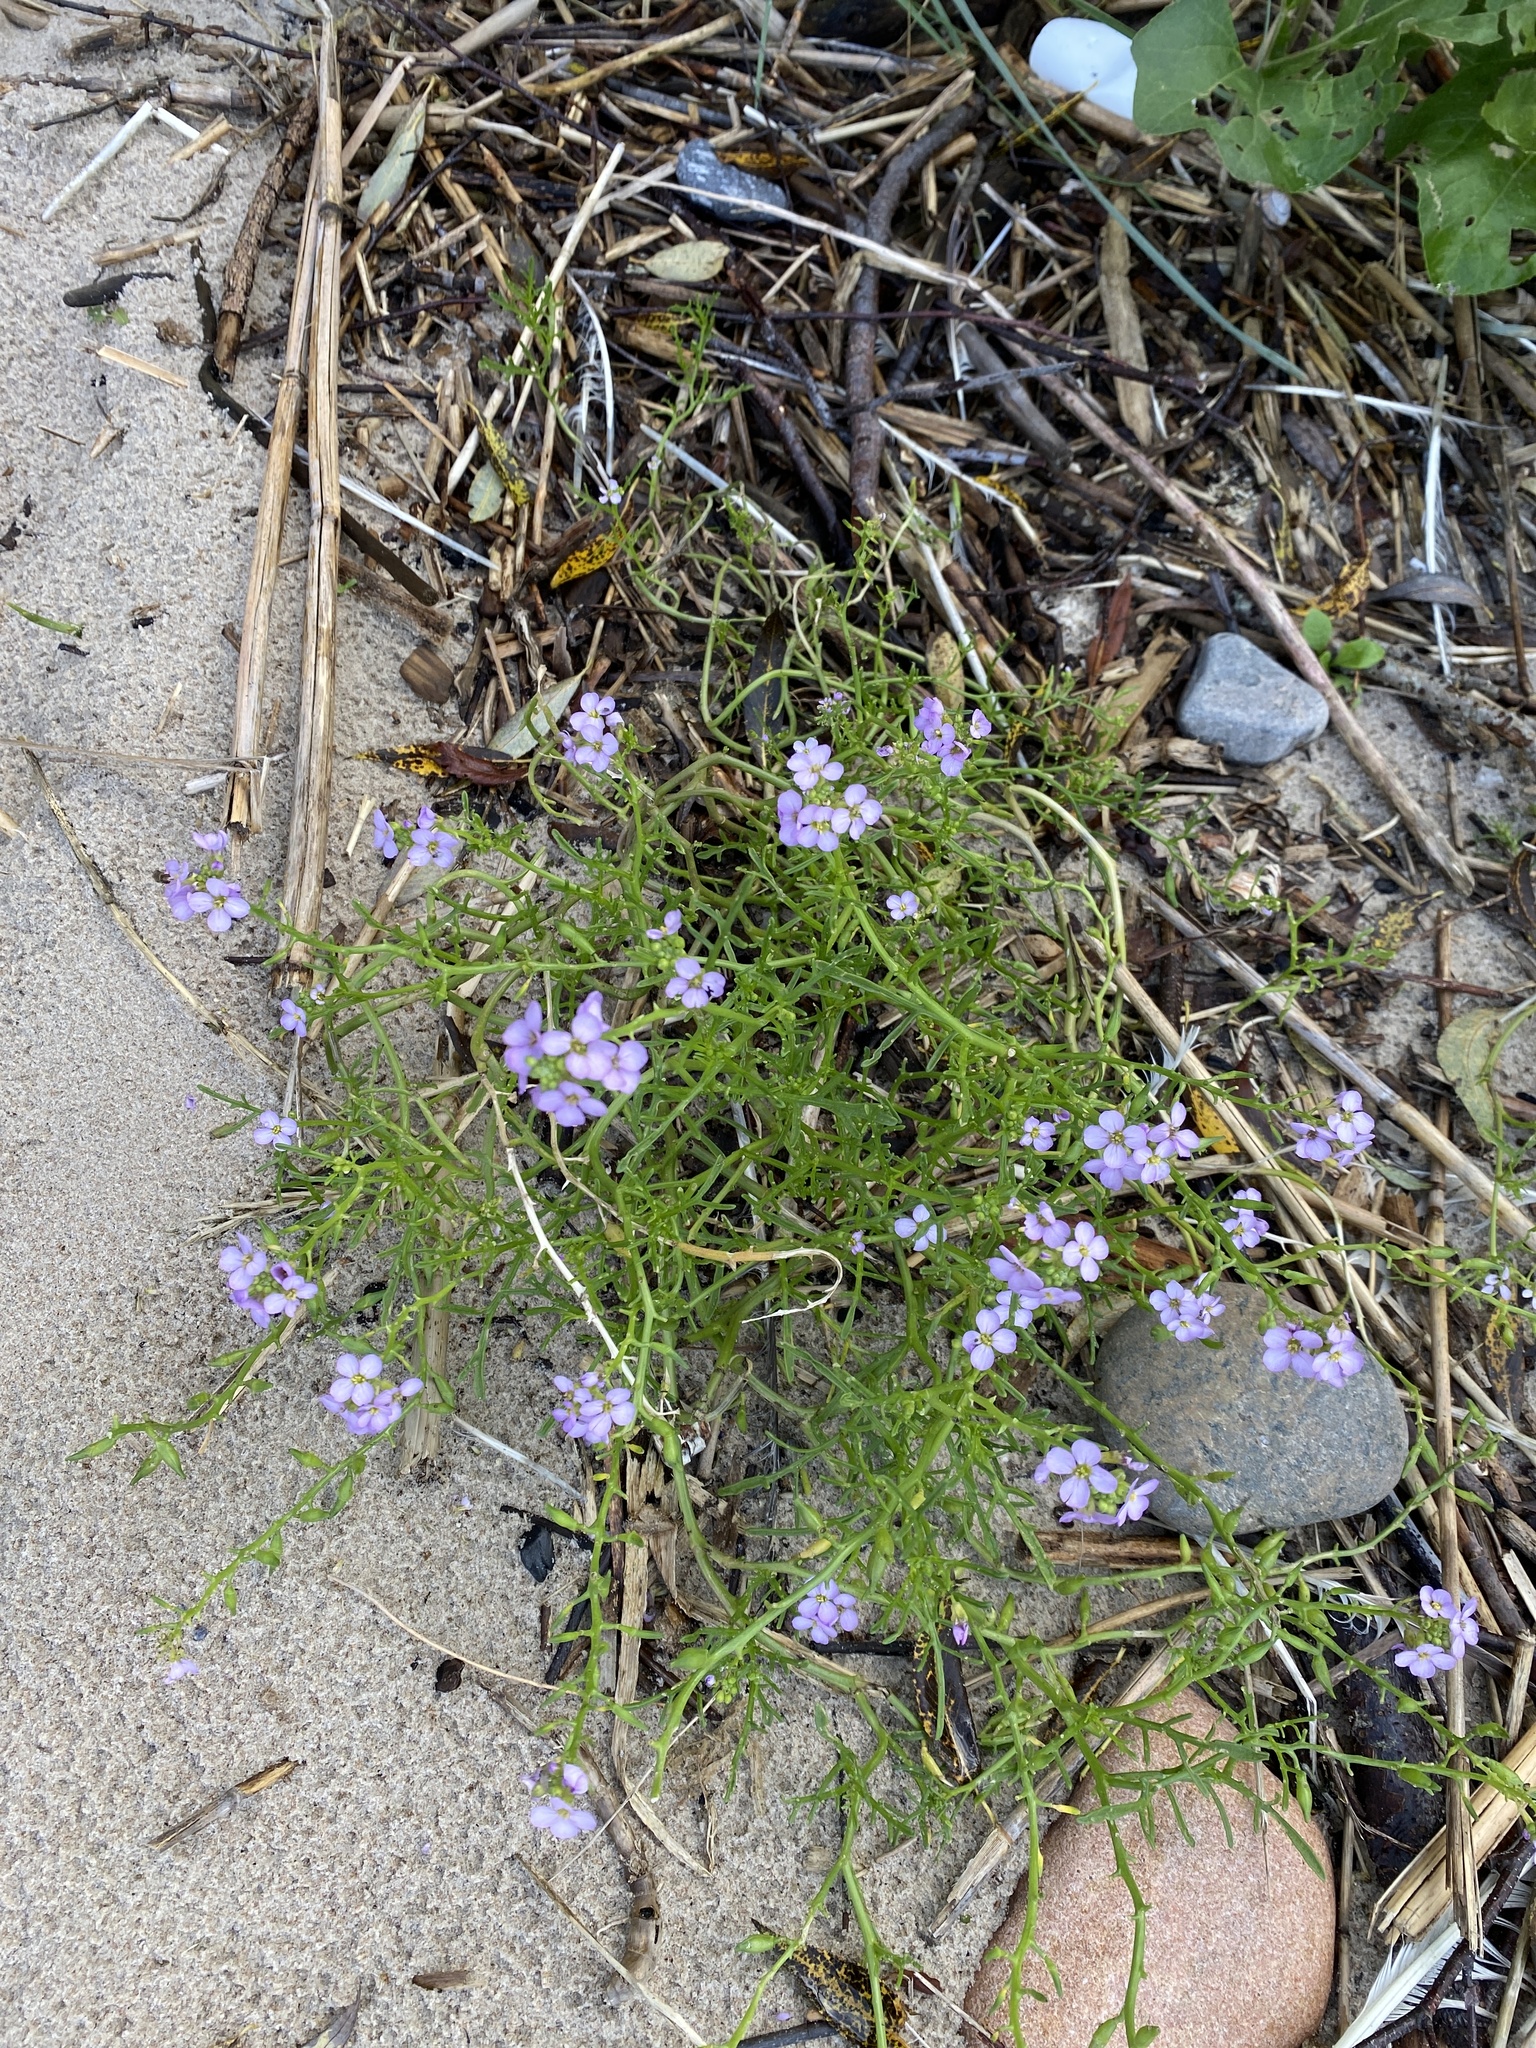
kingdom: Plantae
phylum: Tracheophyta
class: Magnoliopsida
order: Brassicales
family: Brassicaceae
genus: Cakile
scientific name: Cakile maritima
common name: Sea rocket
